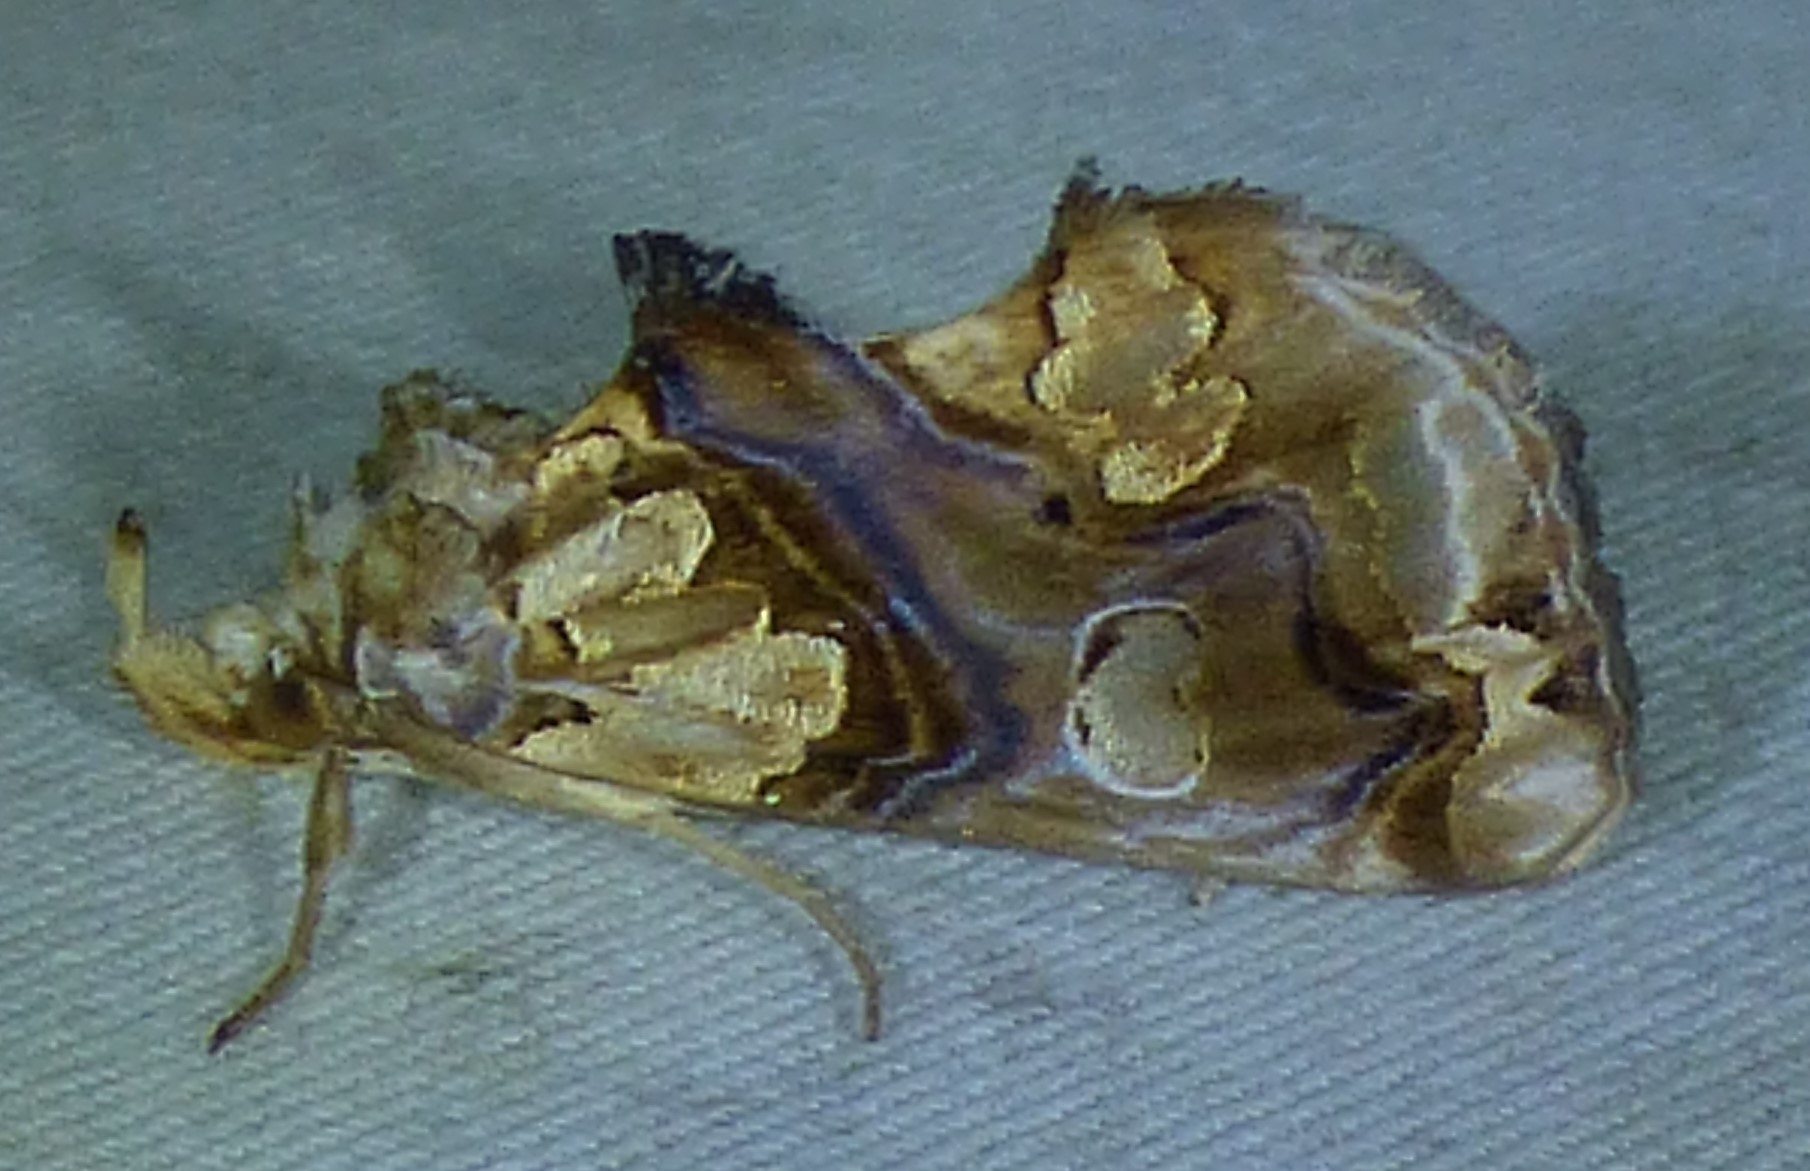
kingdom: Animalia
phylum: Arthropoda
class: Insecta
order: Lepidoptera
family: Erebidae
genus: Plusiodonta
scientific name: Plusiodonta compressipalpis
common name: Moonseed moth
